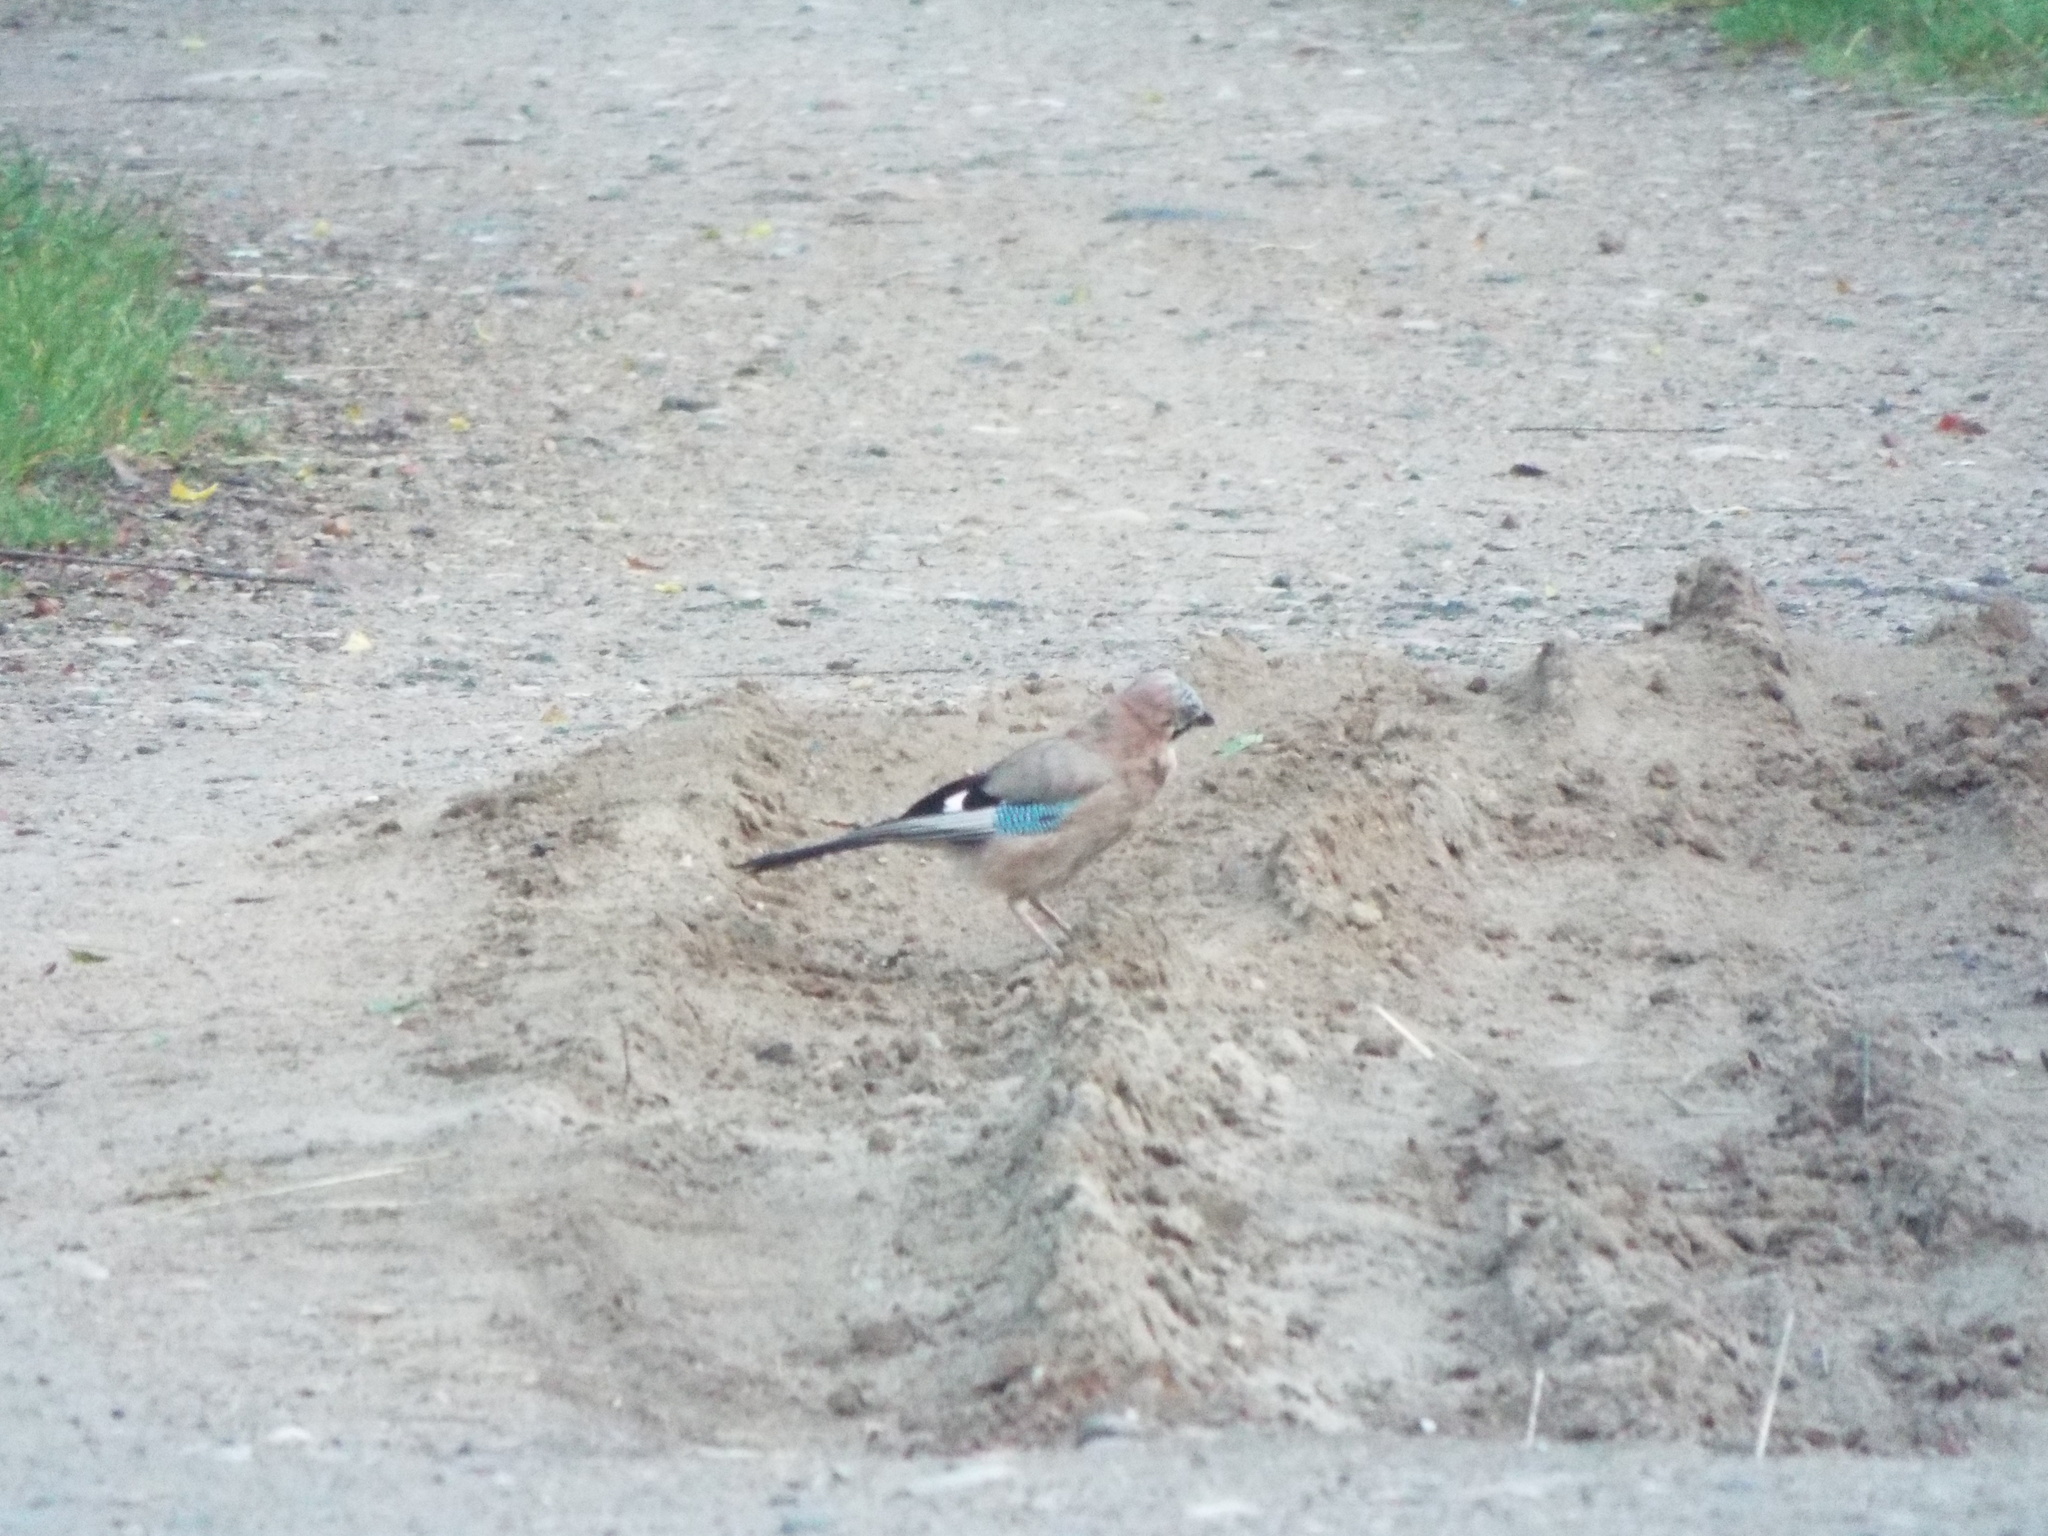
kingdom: Animalia
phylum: Chordata
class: Aves
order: Passeriformes
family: Corvidae
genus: Garrulus
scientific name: Garrulus glandarius
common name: Eurasian jay
